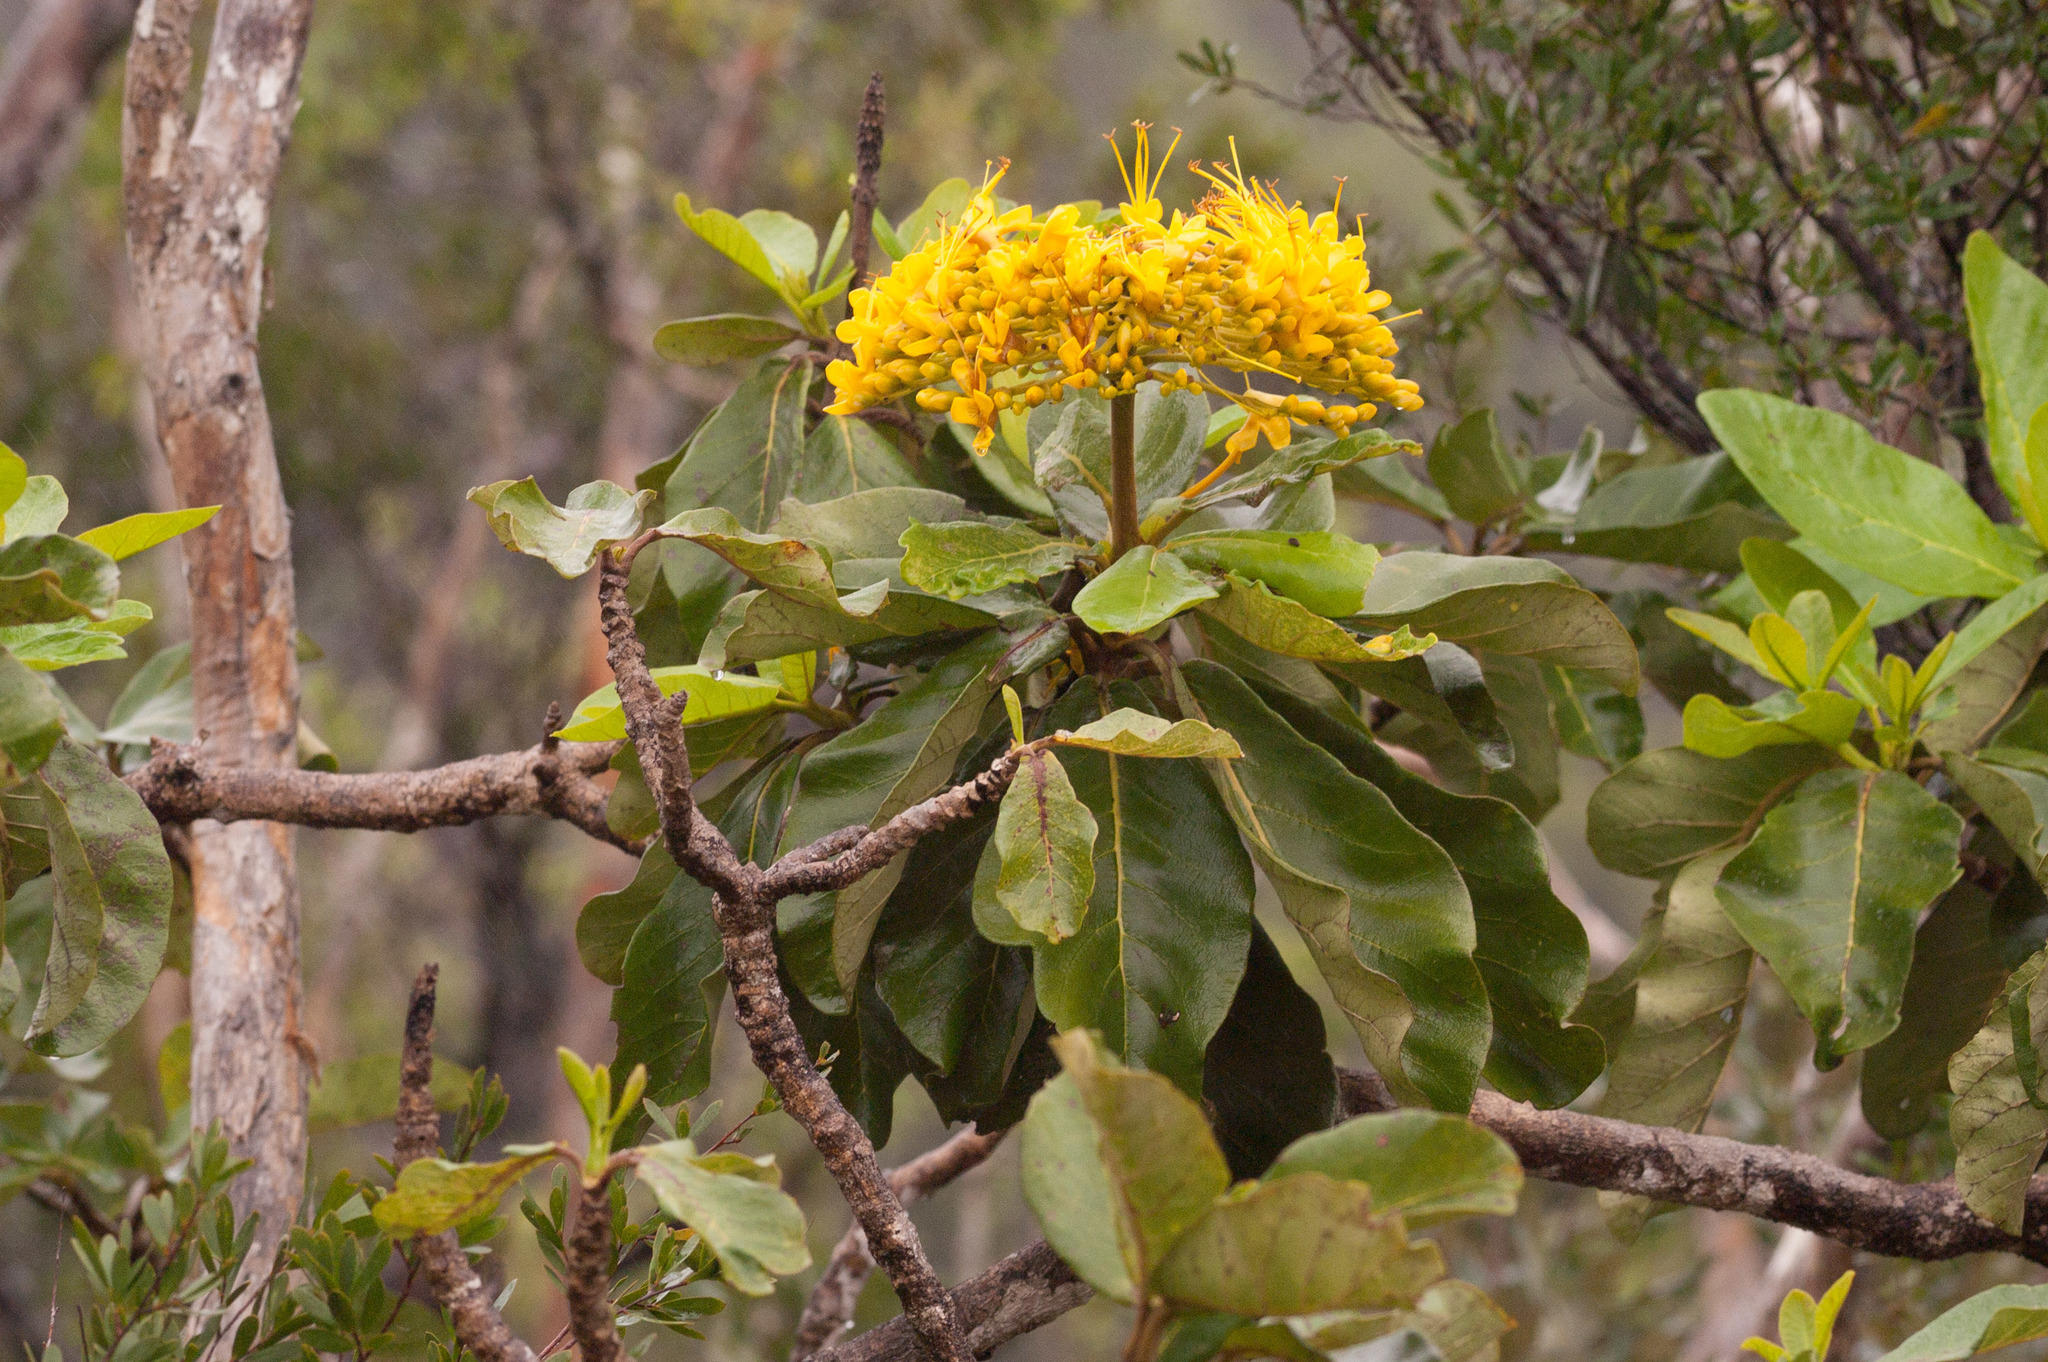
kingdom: Plantae
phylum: Tracheophyta
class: Magnoliopsida
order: Lamiales
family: Bignoniaceae
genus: Deplanchea
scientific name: Deplanchea tetraphylla
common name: Deplanchea
